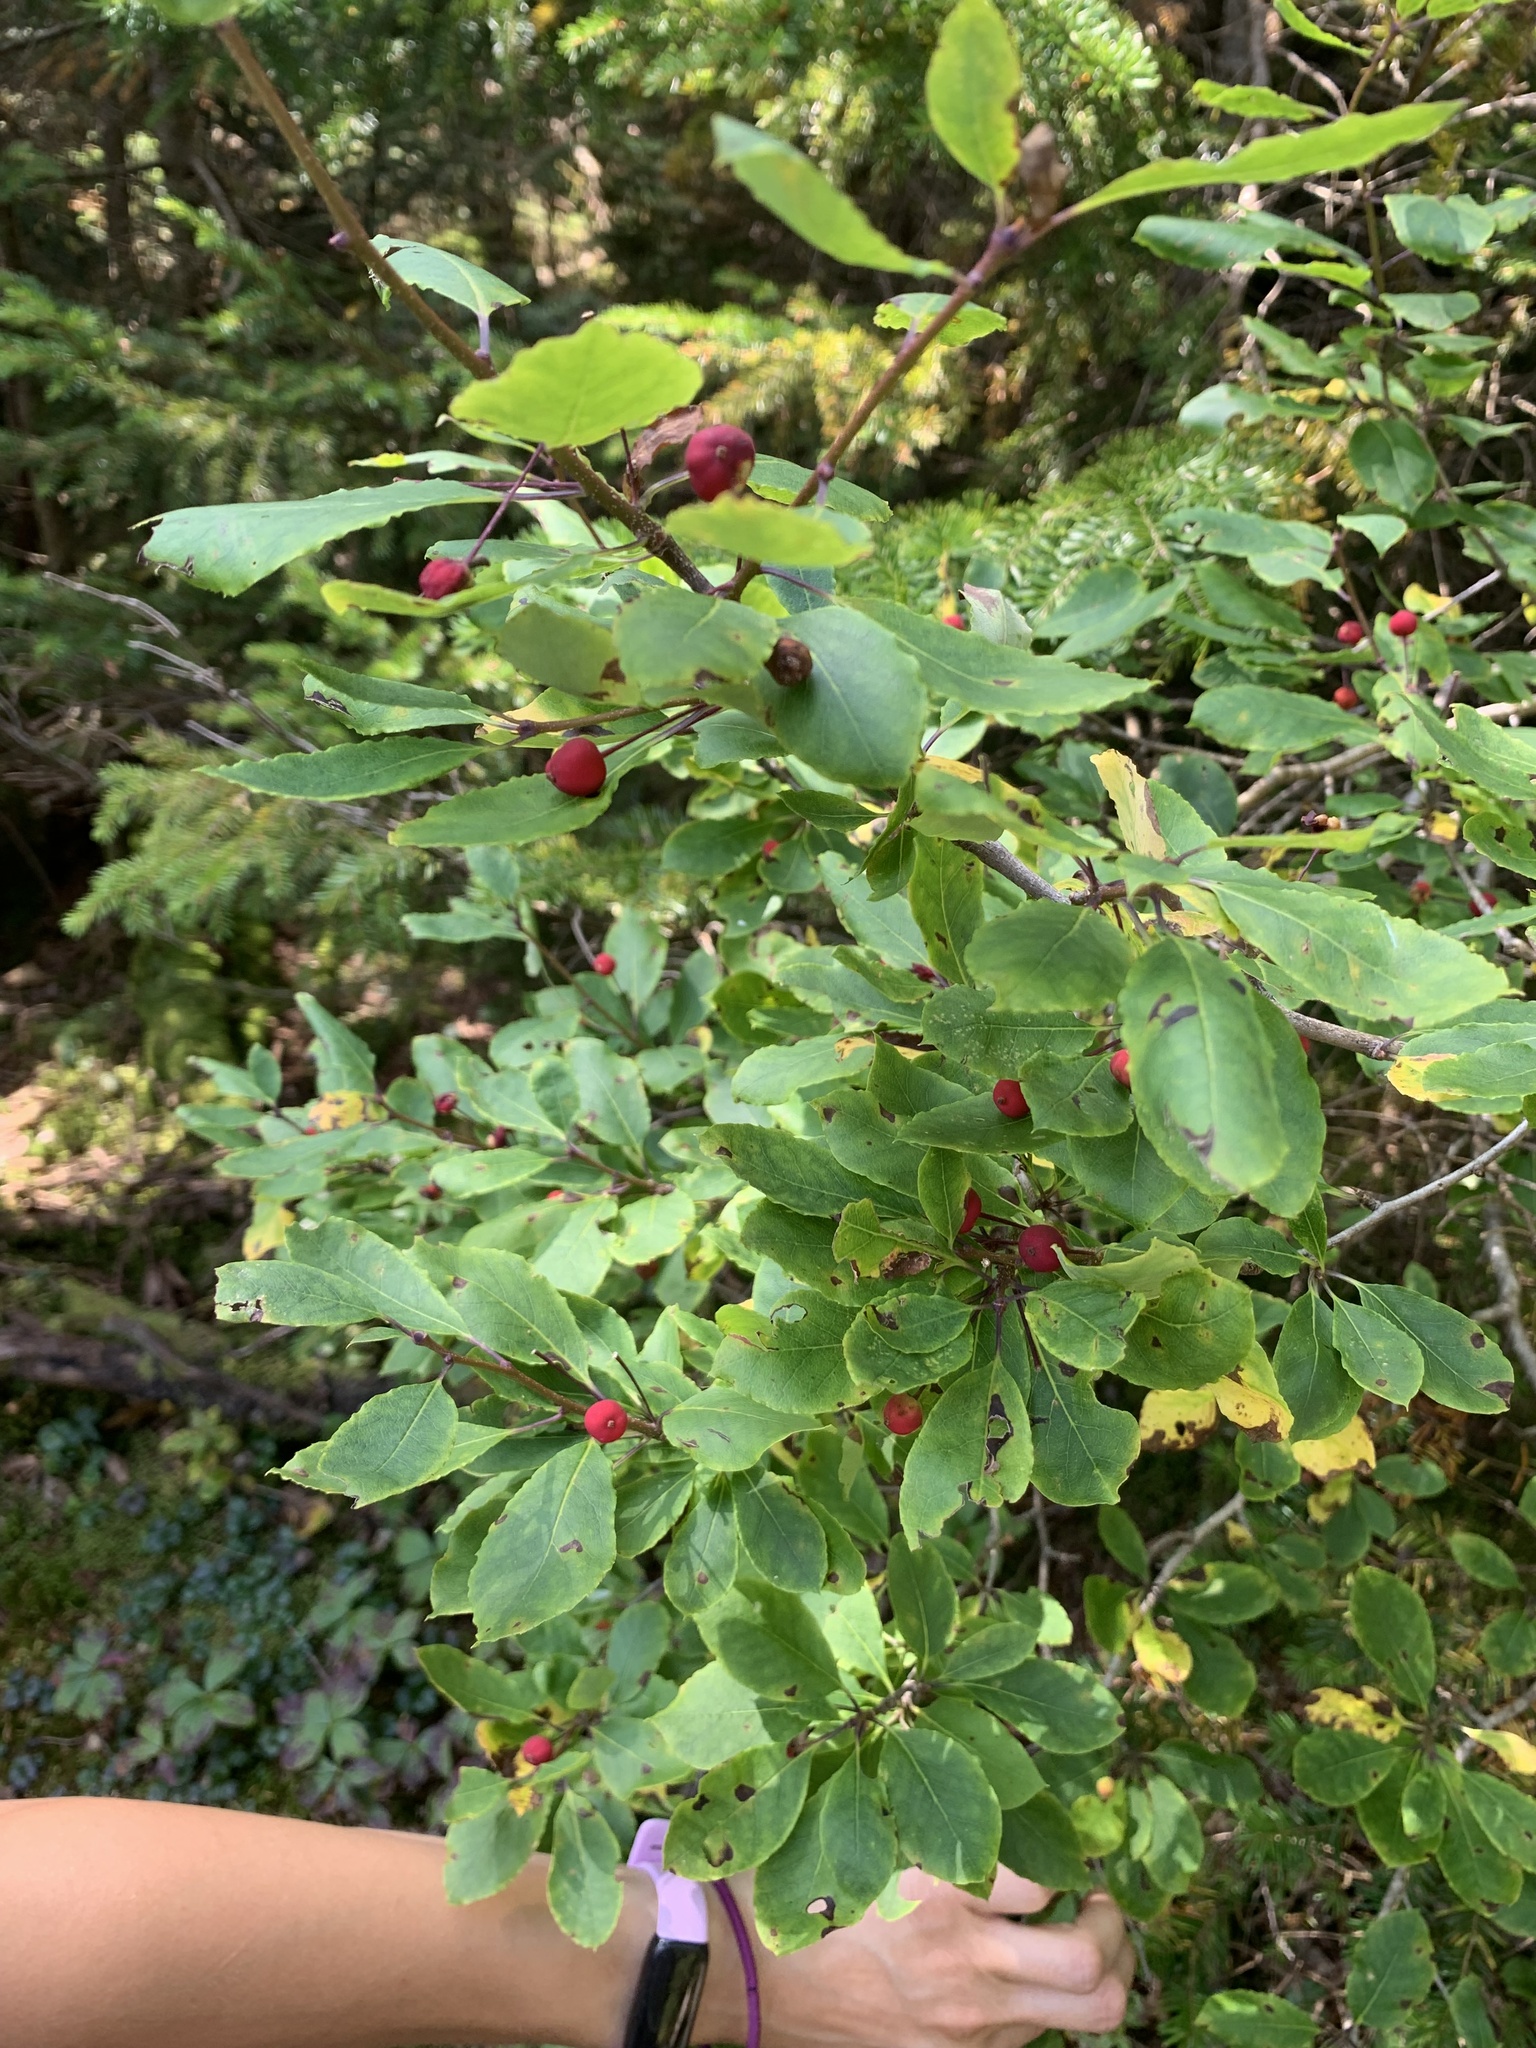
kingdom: Plantae
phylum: Tracheophyta
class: Magnoliopsida
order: Aquifoliales
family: Aquifoliaceae
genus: Ilex
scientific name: Ilex mucronata
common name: Catberry
